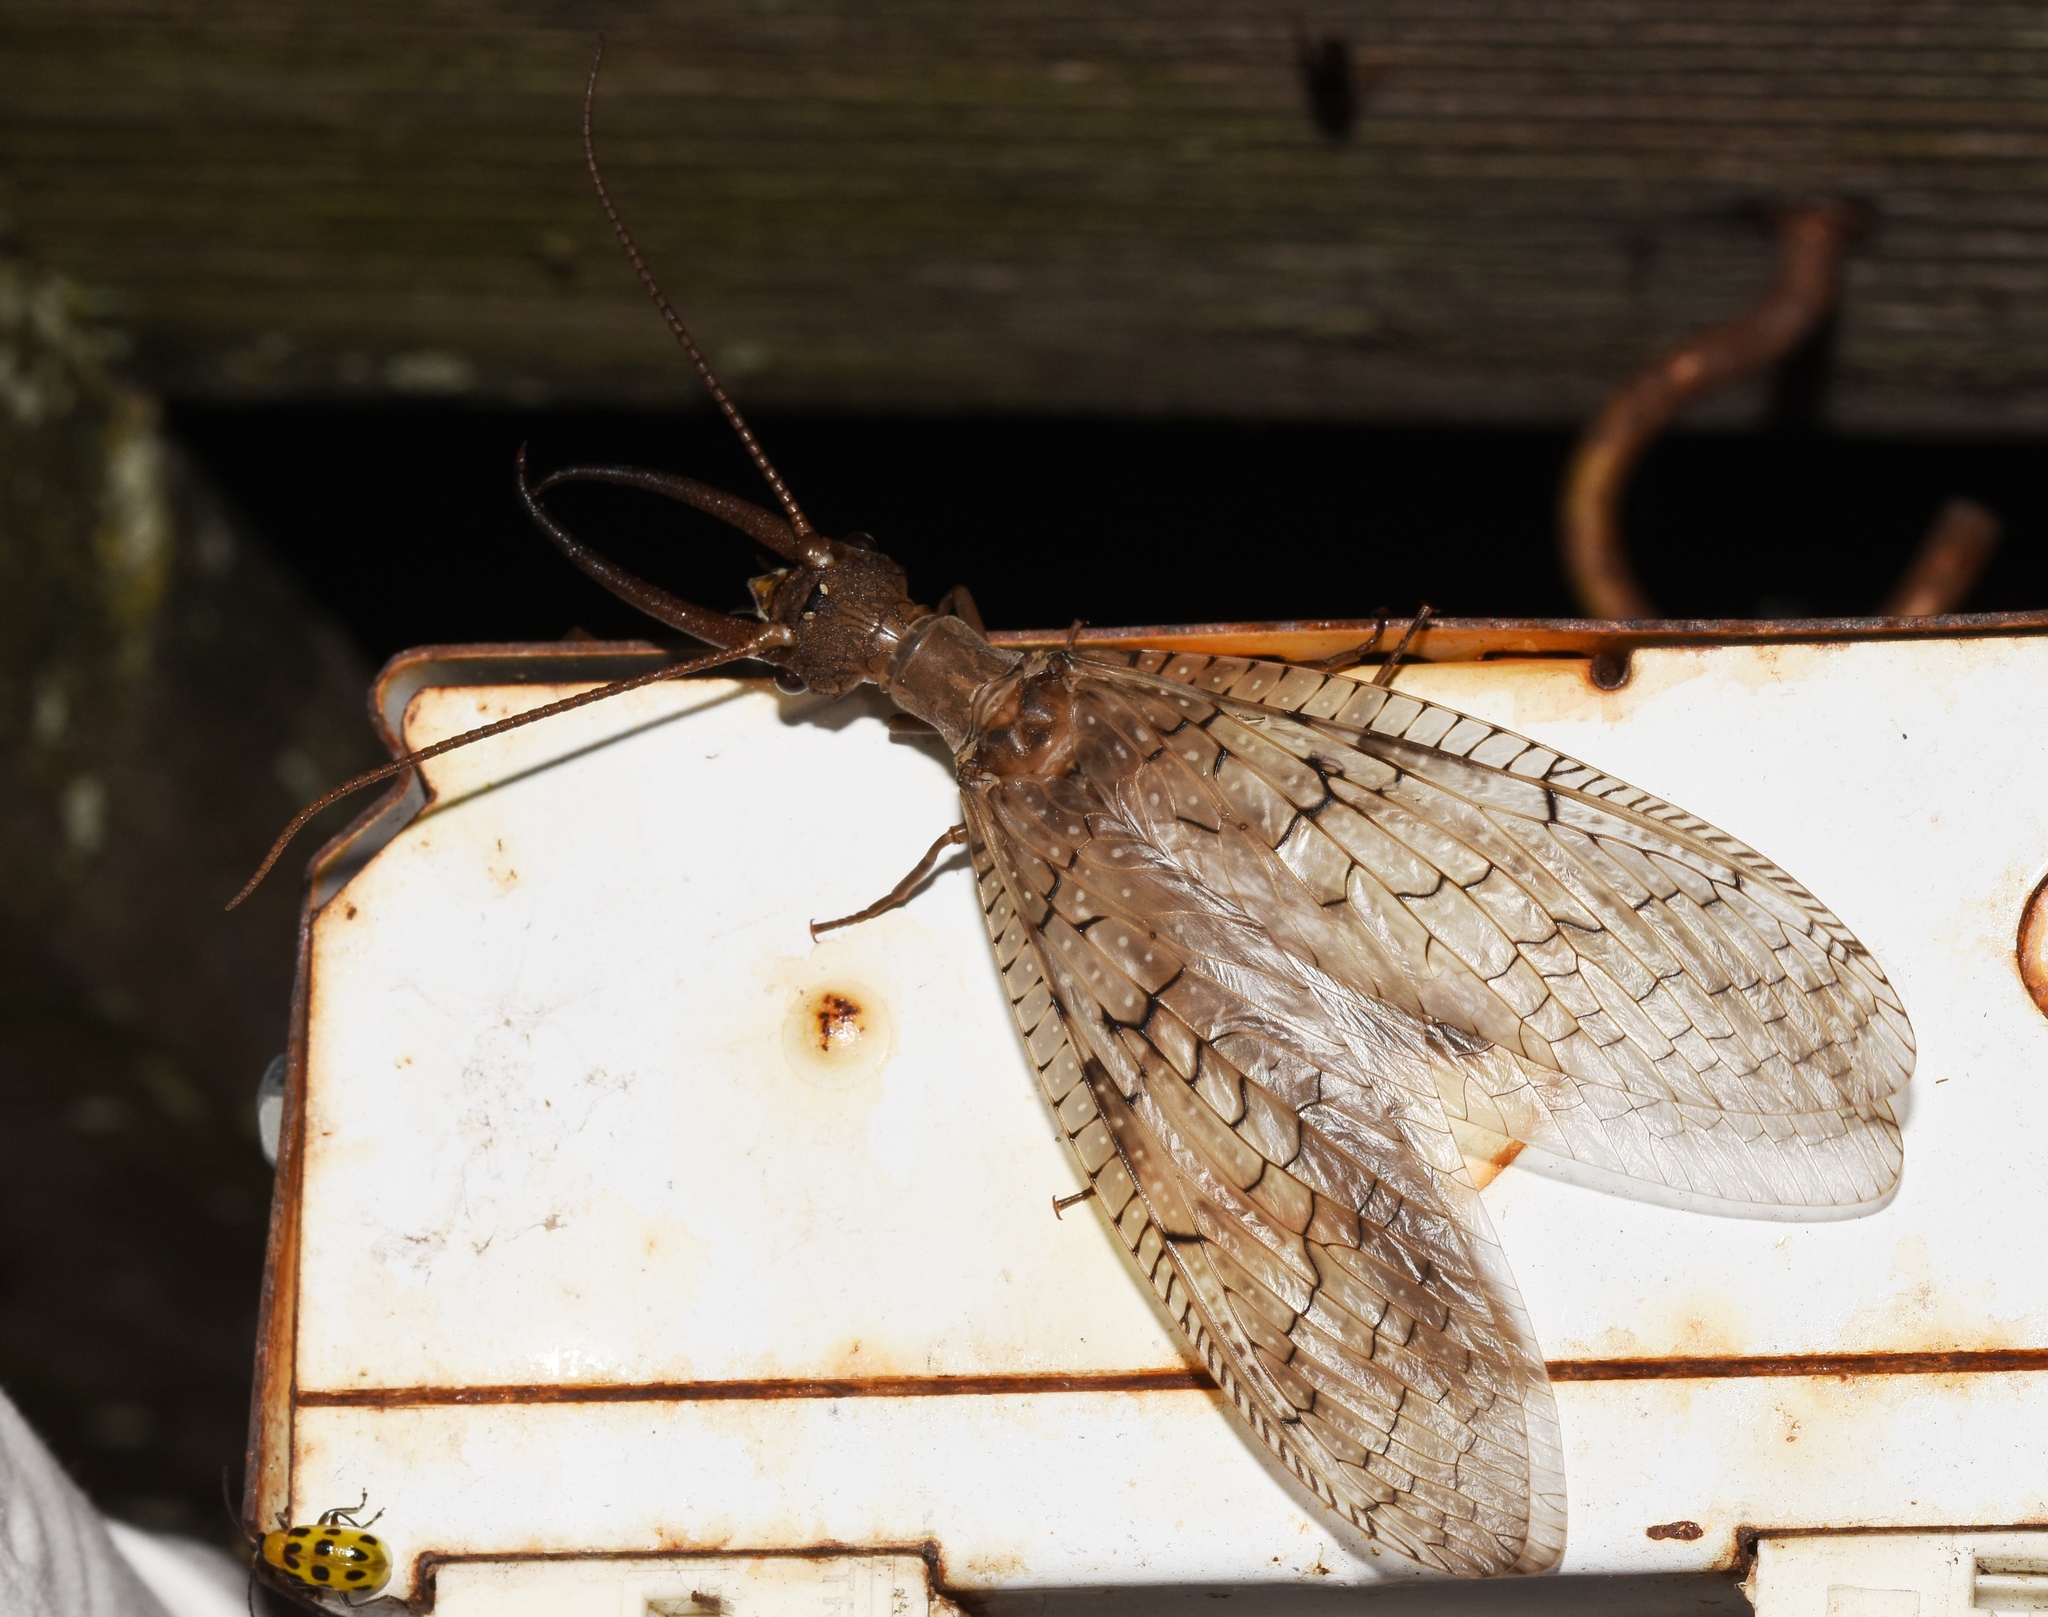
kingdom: Animalia
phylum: Arthropoda
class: Insecta
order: Megaloptera
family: Corydalidae
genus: Corydalus
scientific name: Corydalus cornutus
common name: Dobsonfly
